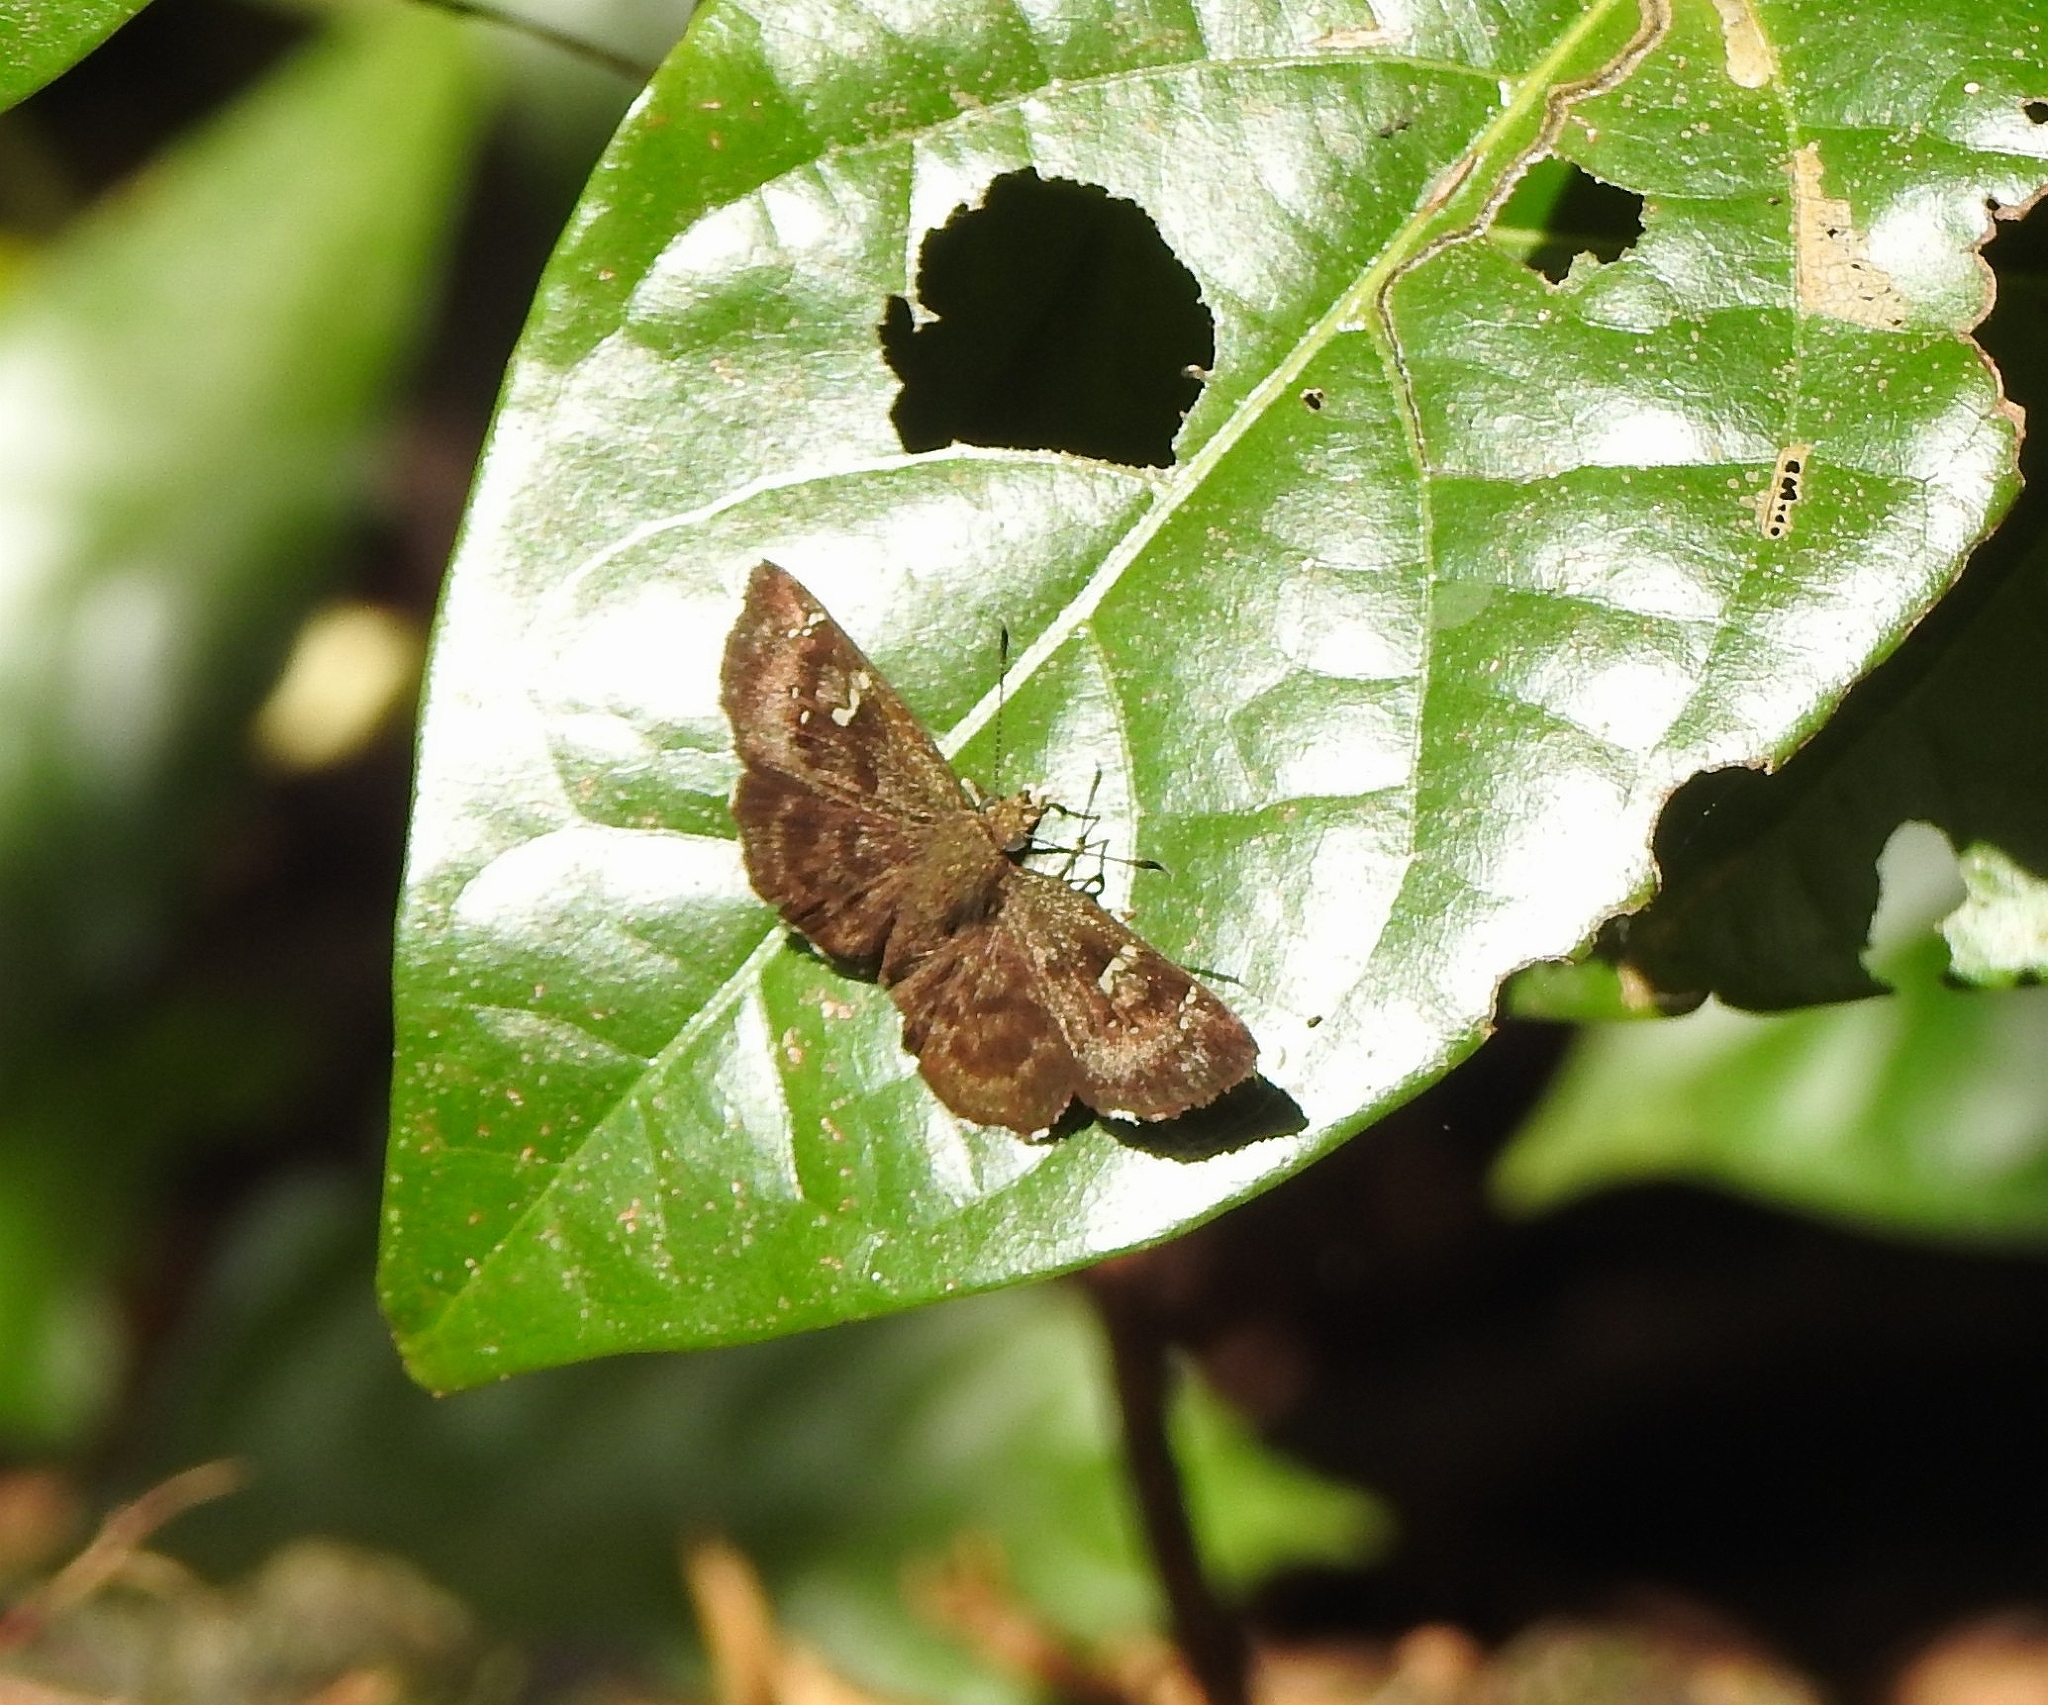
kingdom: Animalia
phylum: Arthropoda
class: Insecta
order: Lepidoptera
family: Hesperiidae
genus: Sarangesa
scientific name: Sarangesa dasahara
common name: Common small flat
